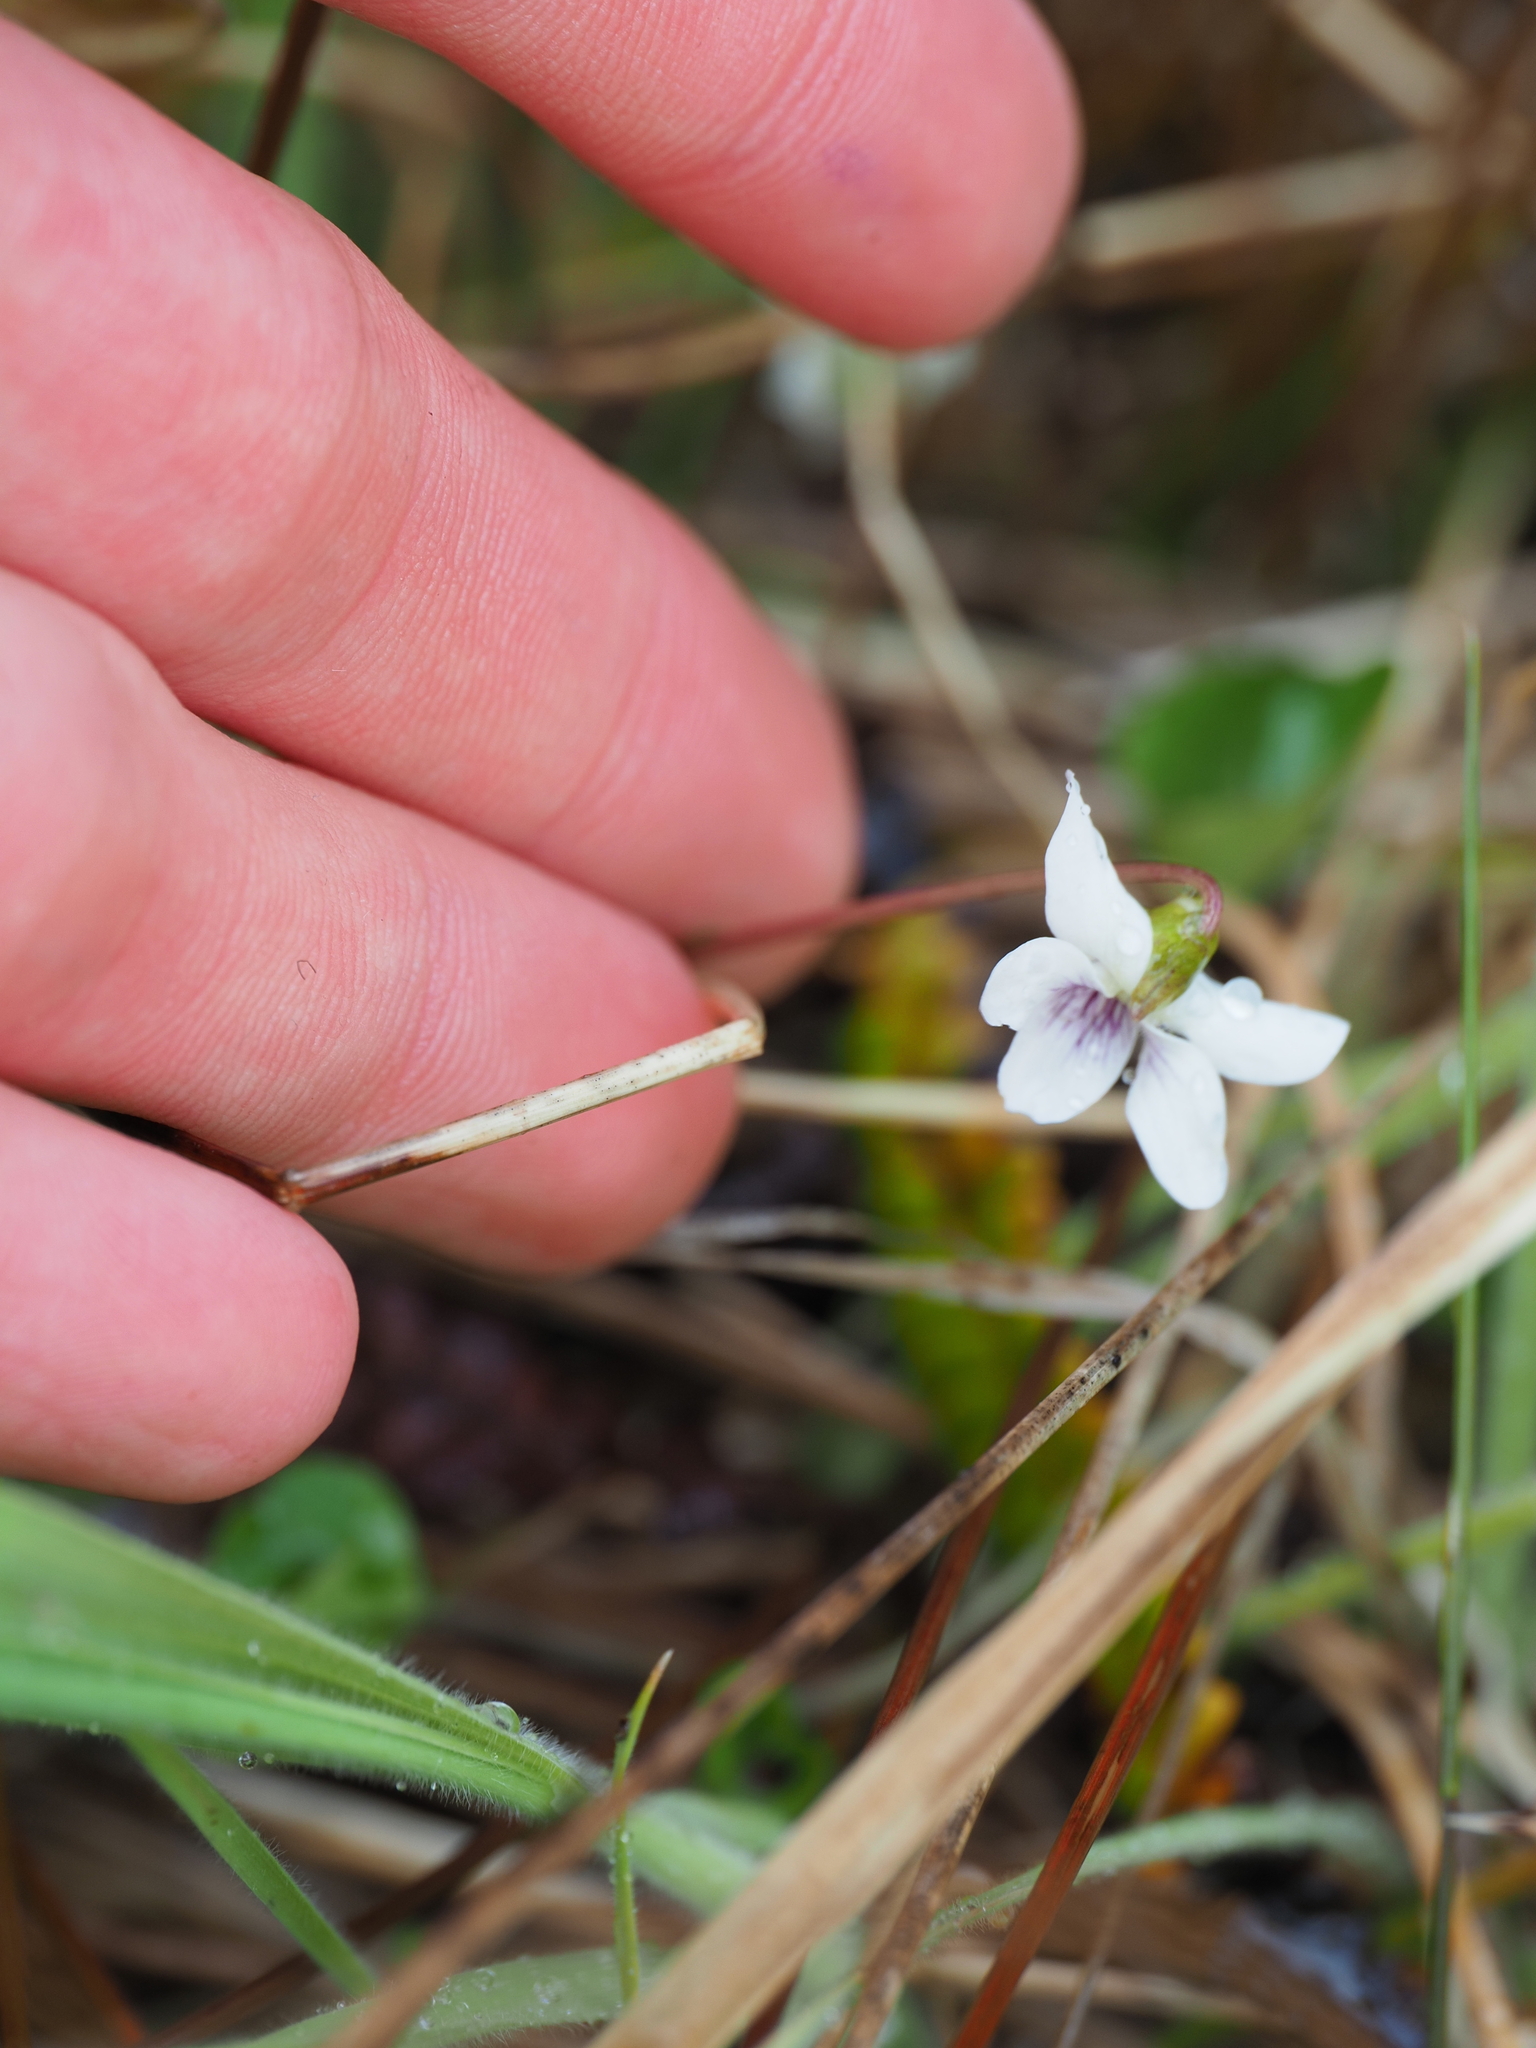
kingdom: Plantae
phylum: Tracheophyta
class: Magnoliopsida
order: Malpighiales
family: Violaceae
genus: Viola
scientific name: Viola cunninghamii
